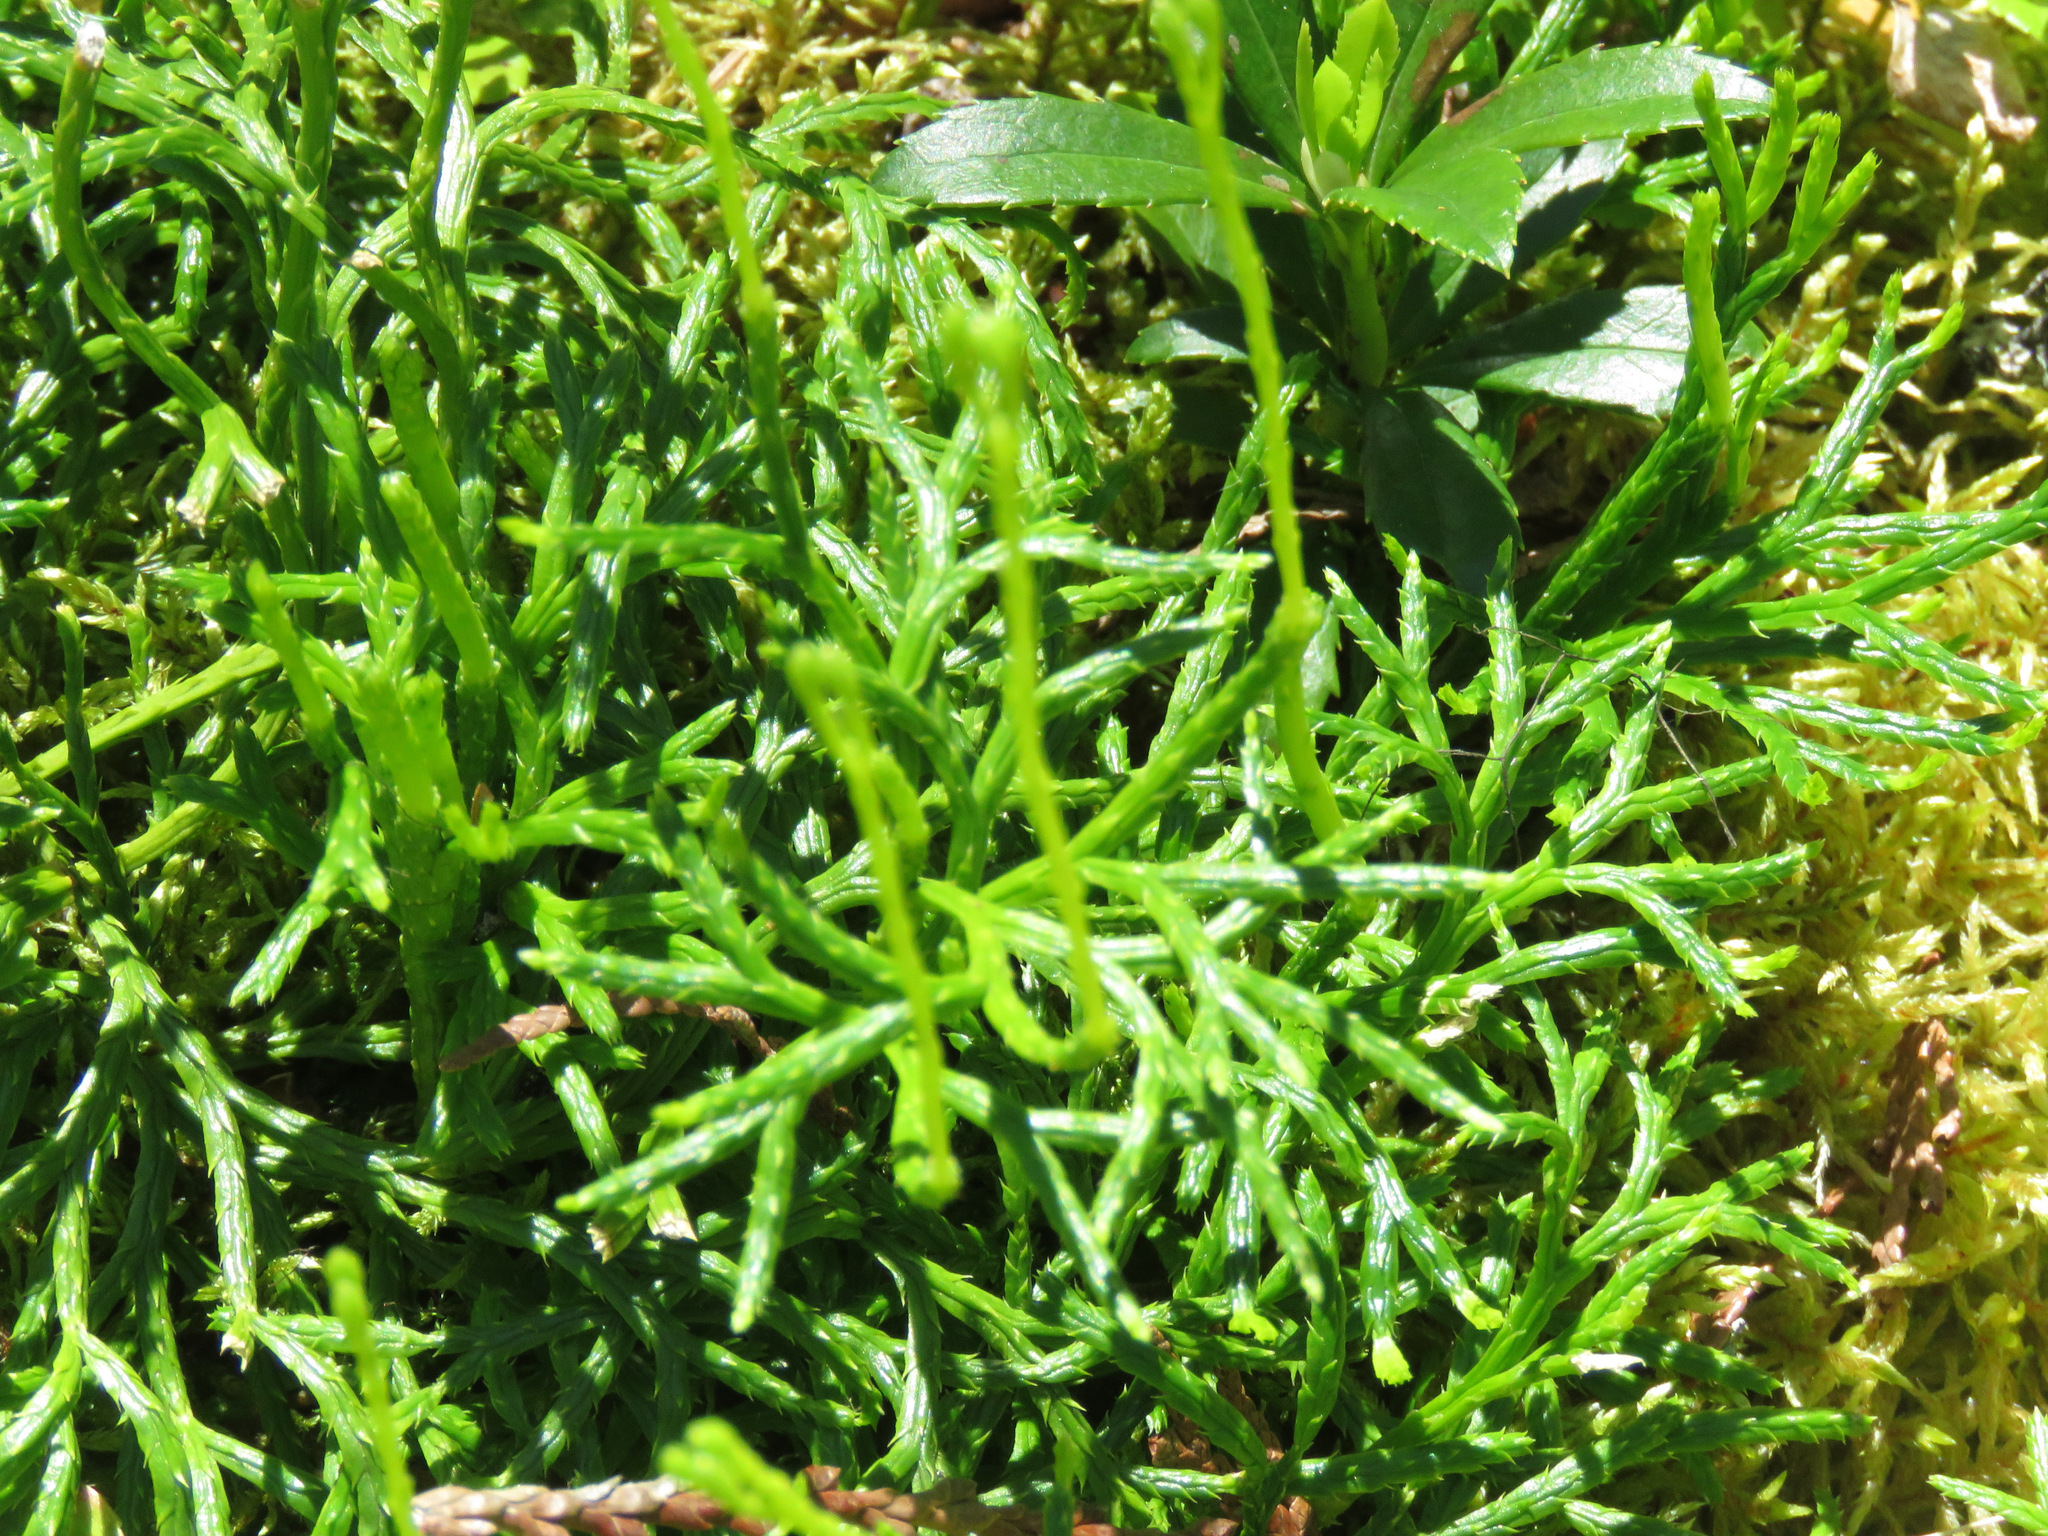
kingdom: Plantae
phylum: Tracheophyta
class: Lycopodiopsida
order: Lycopodiales
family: Lycopodiaceae
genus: Diphasiastrum
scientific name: Diphasiastrum complanatum
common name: Northern running-pine
